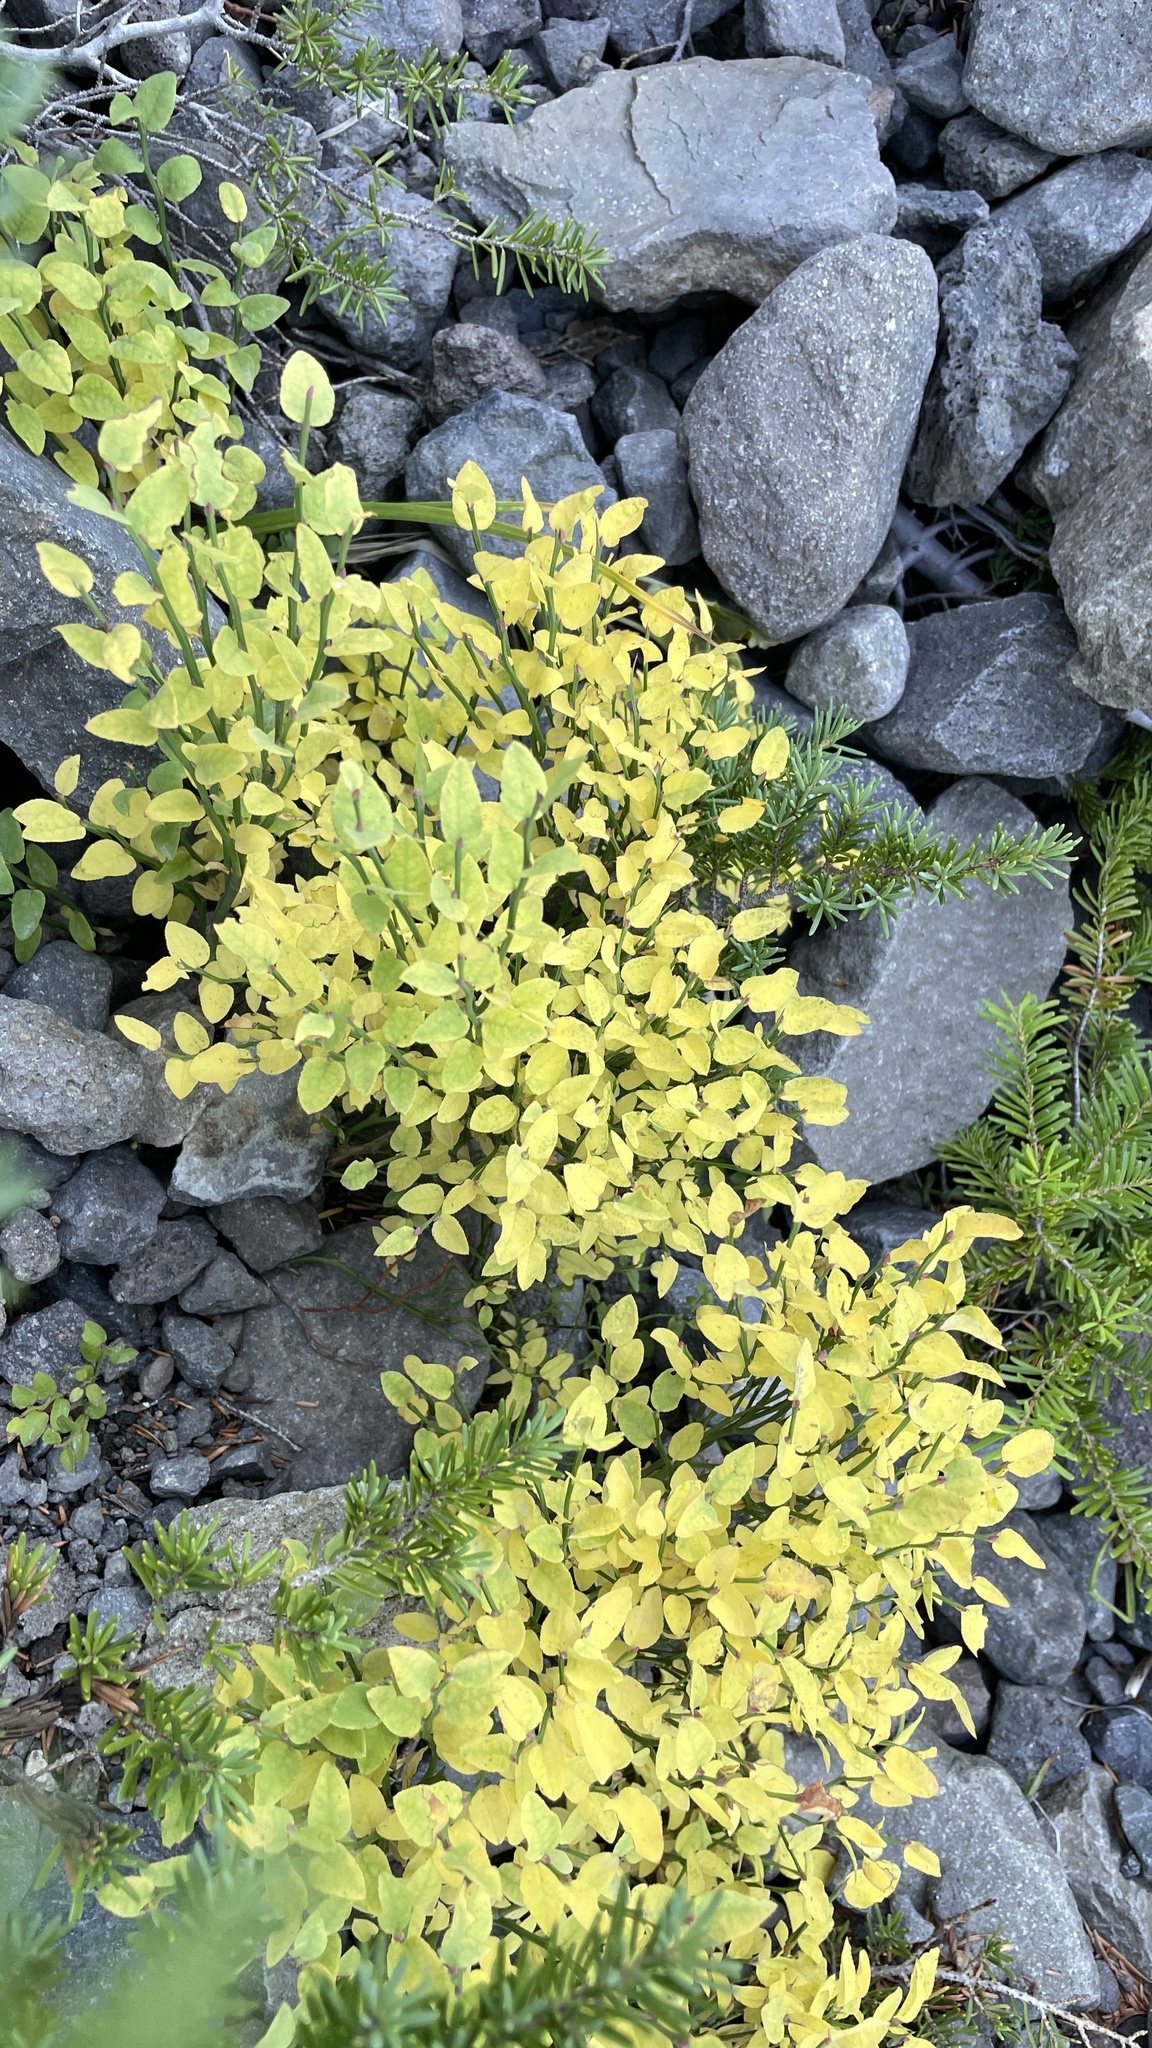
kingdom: Plantae
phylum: Tracheophyta
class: Magnoliopsida
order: Ericales
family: Ericaceae
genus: Vaccinium
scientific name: Vaccinium scoparium
